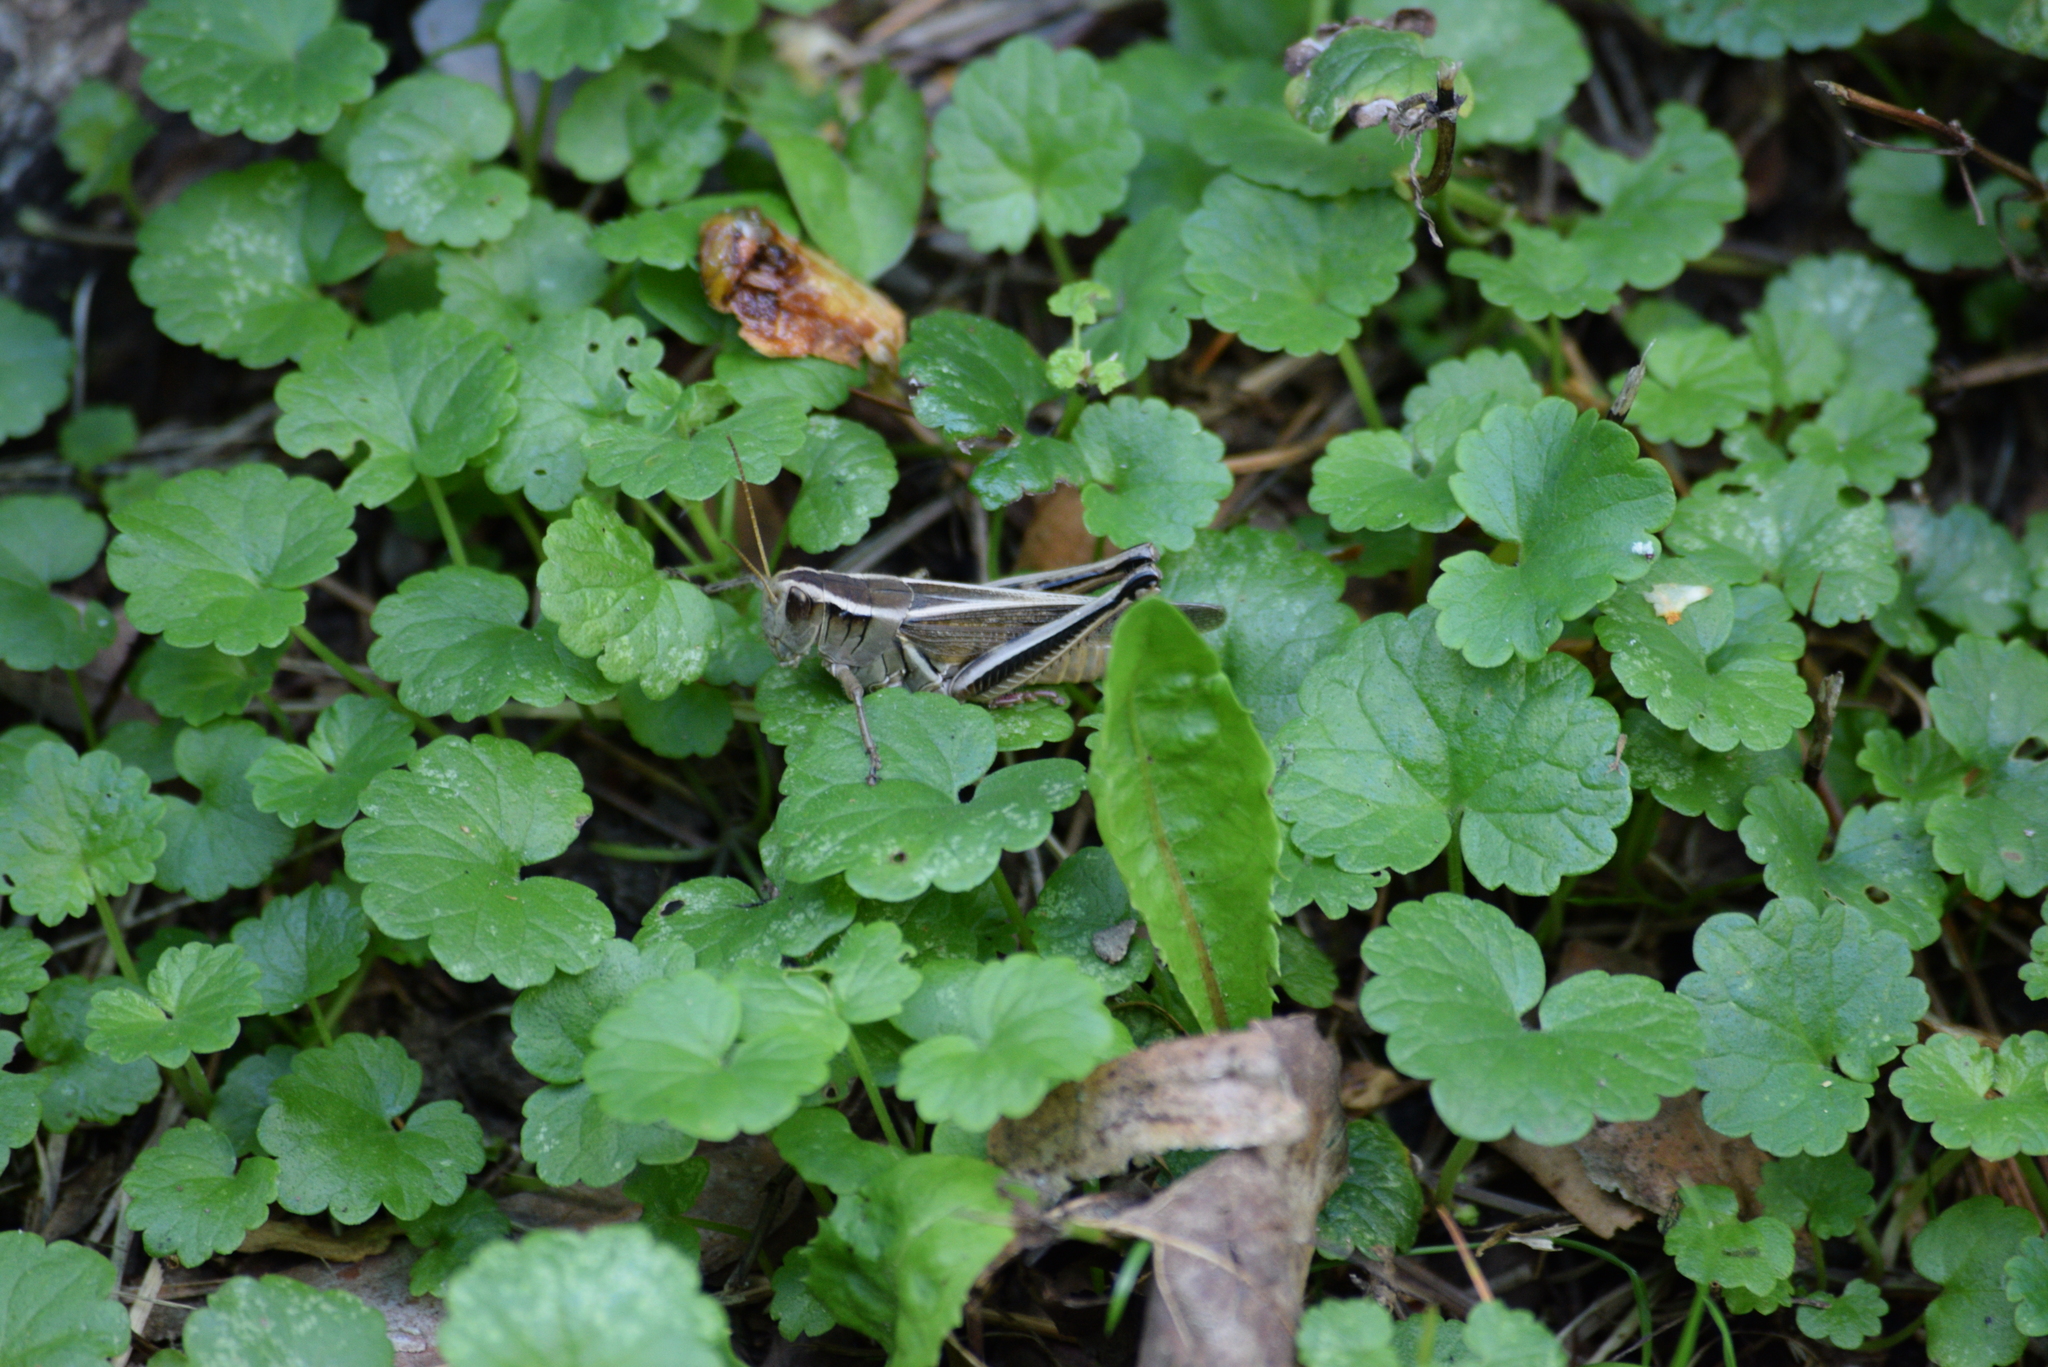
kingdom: Animalia
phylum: Arthropoda
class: Insecta
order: Orthoptera
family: Acrididae
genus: Melanoplus
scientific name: Melanoplus bivittatus
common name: Two-striped grasshopper
